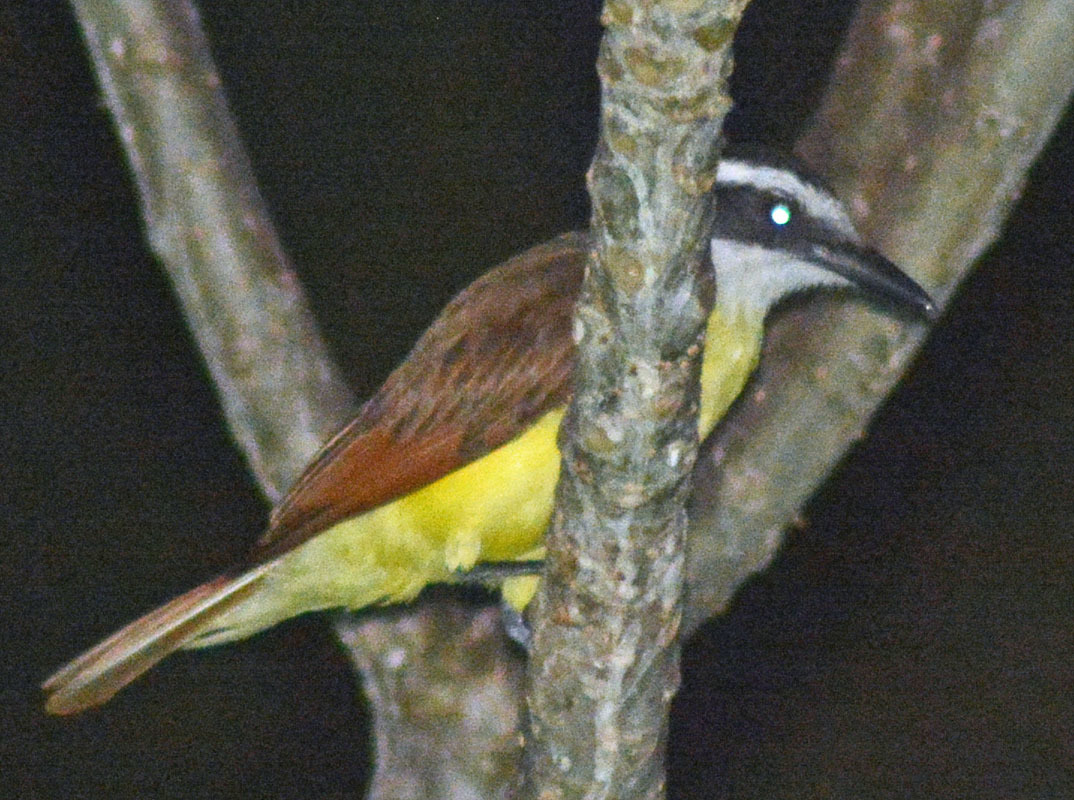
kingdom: Animalia
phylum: Chordata
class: Aves
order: Passeriformes
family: Tyrannidae
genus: Pitangus
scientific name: Pitangus sulphuratus
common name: Great kiskadee
